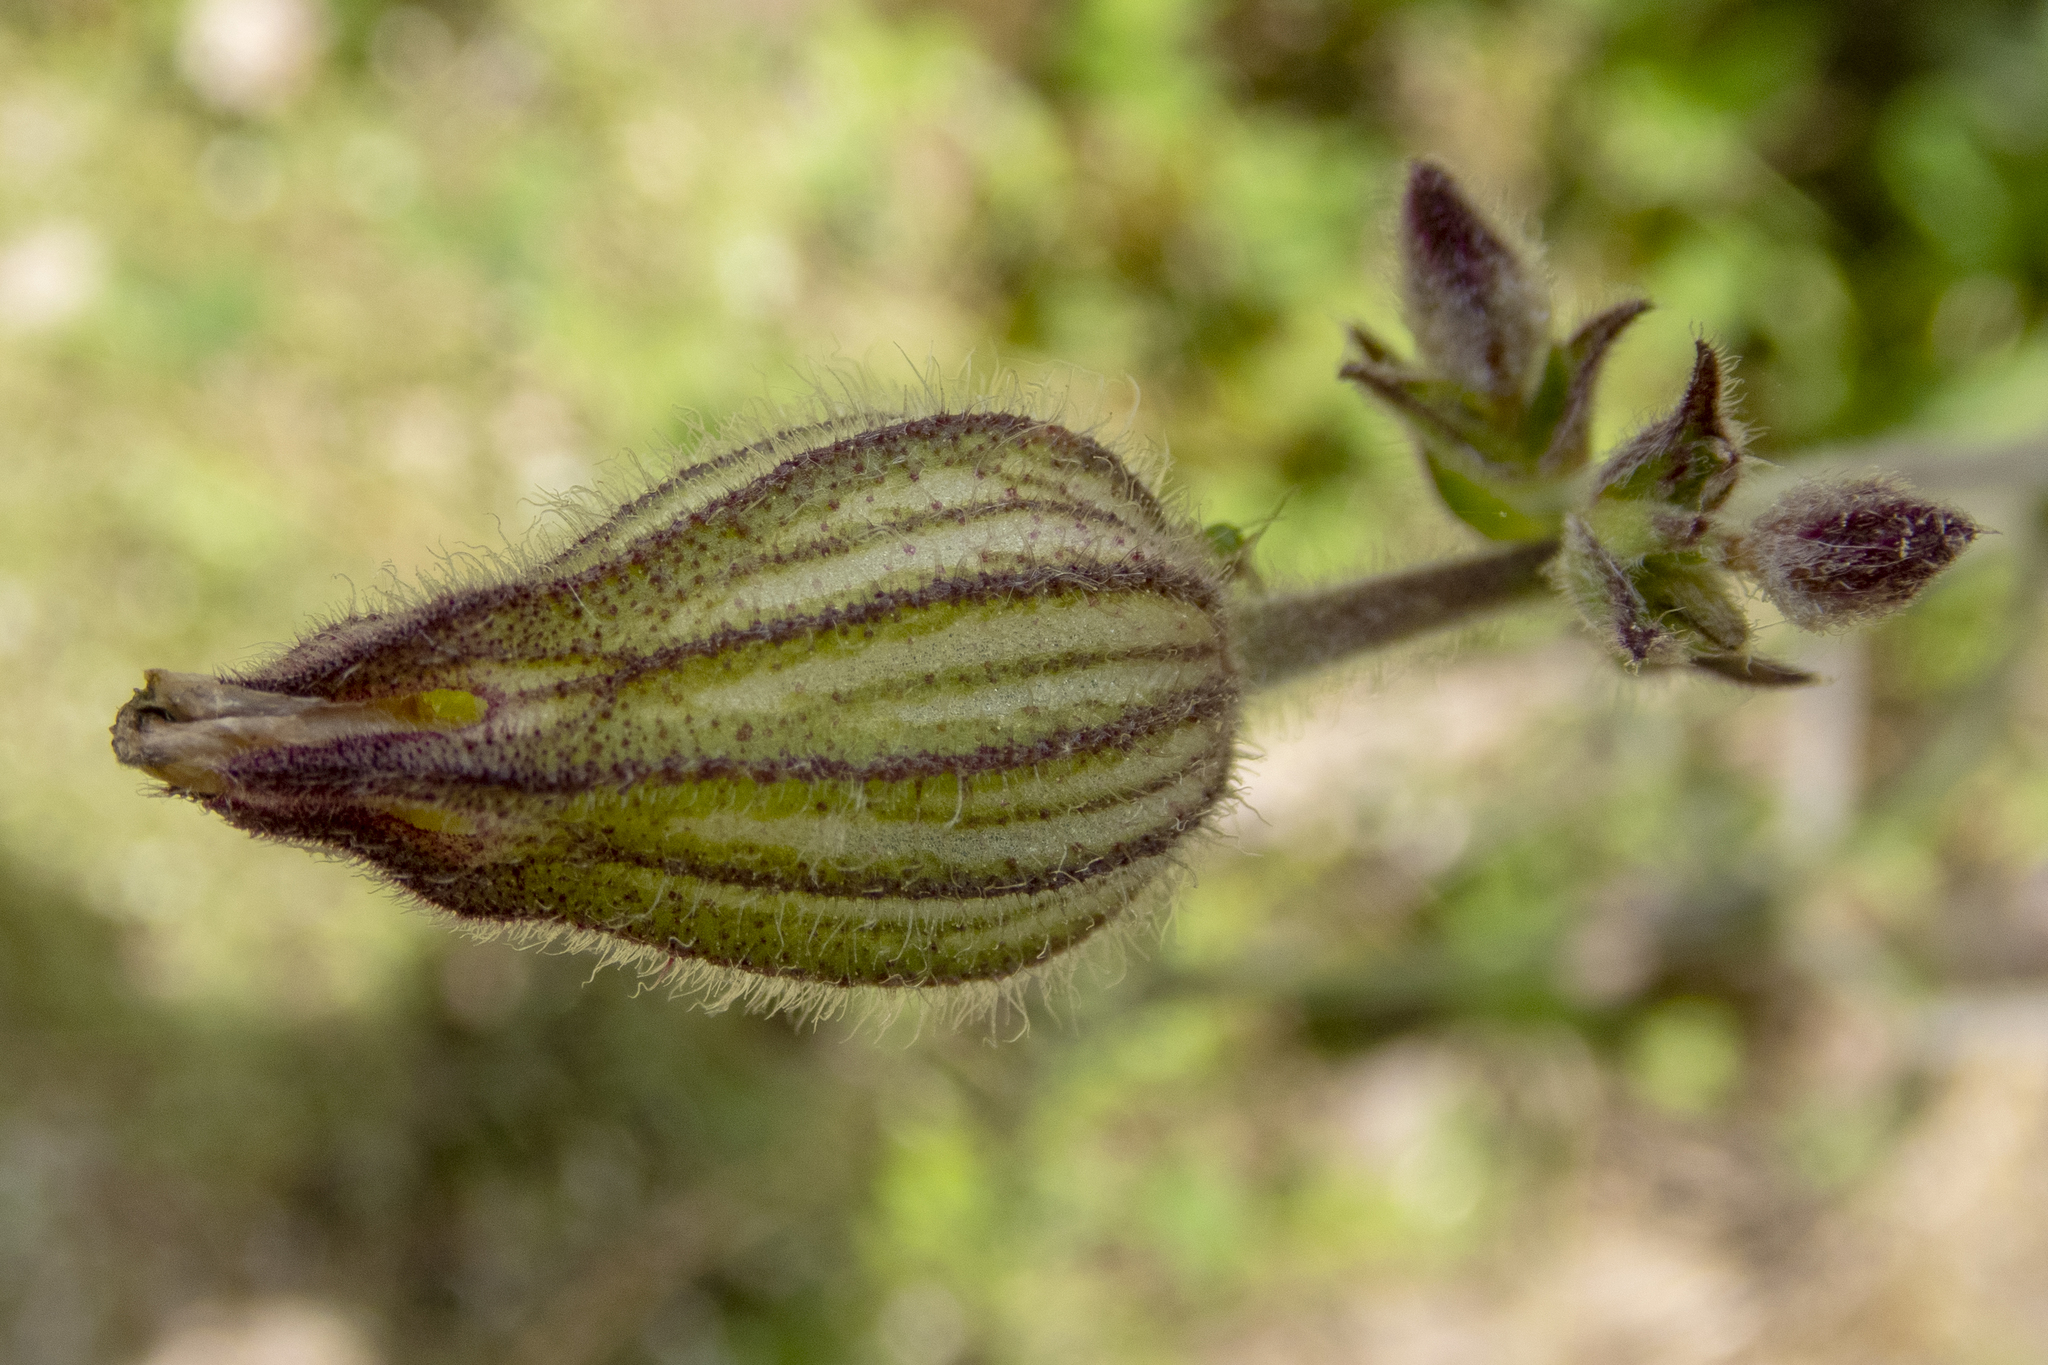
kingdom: Plantae
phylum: Tracheophyta
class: Magnoliopsida
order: Caryophyllales
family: Caryophyllaceae
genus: Silene
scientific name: Silene latifolia
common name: White campion
